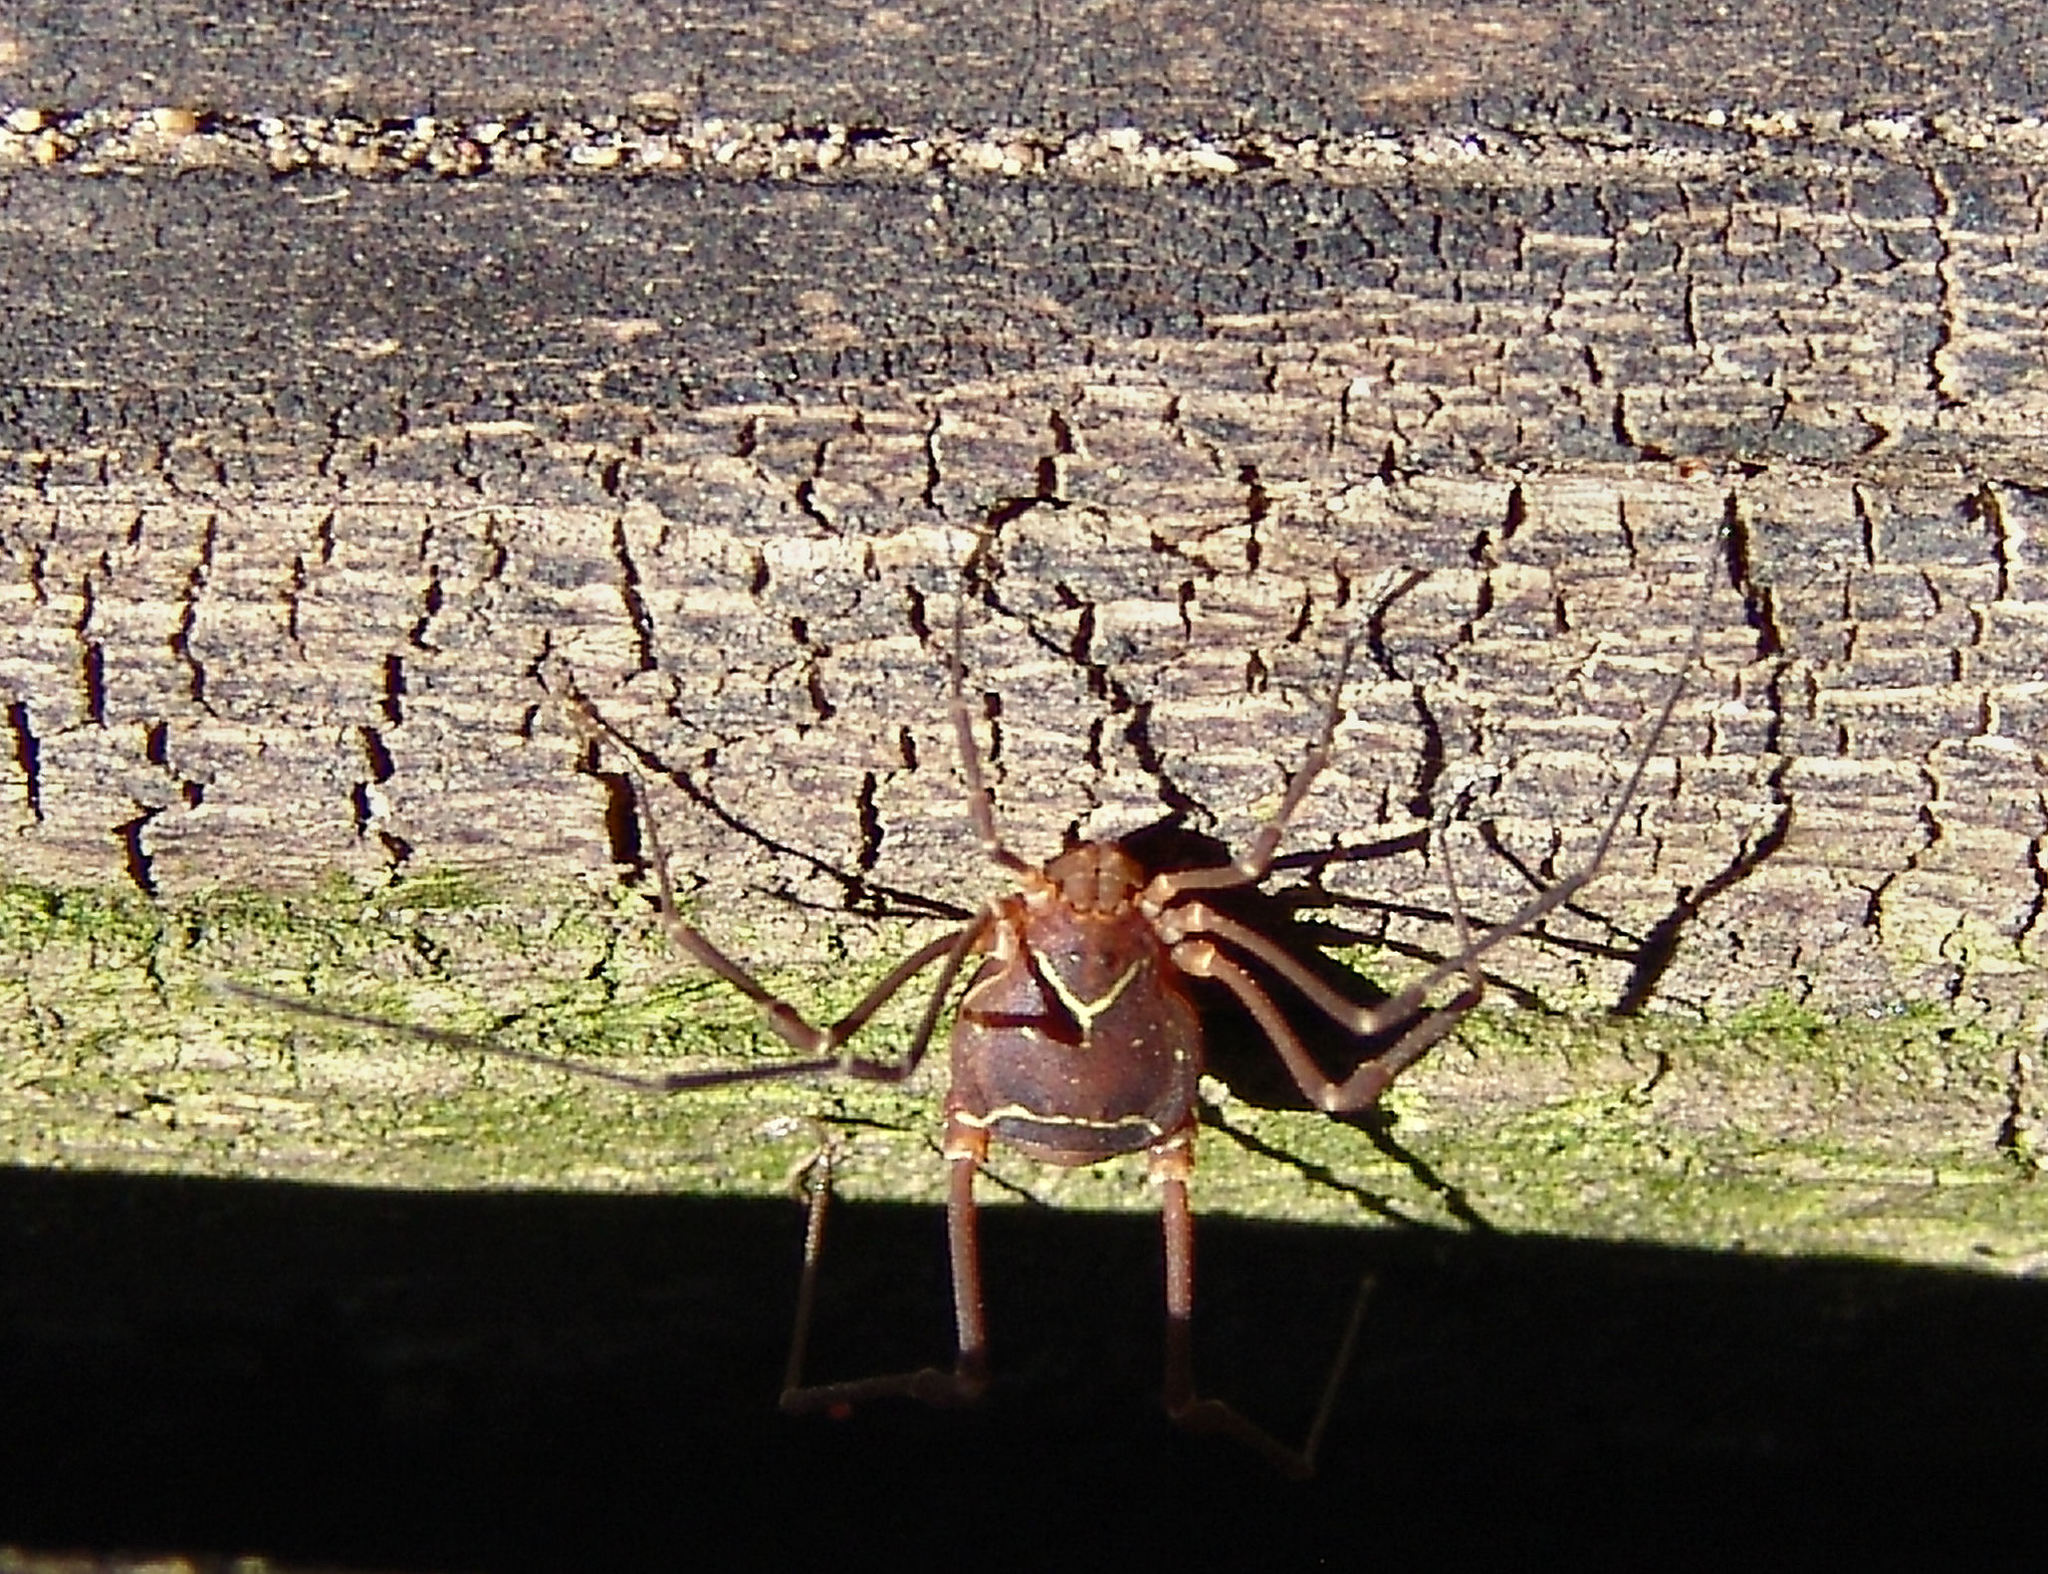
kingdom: Animalia
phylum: Arthropoda
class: Arachnida
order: Opiliones
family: Cosmetidae
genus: Libitioides
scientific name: Libitioides sayi
